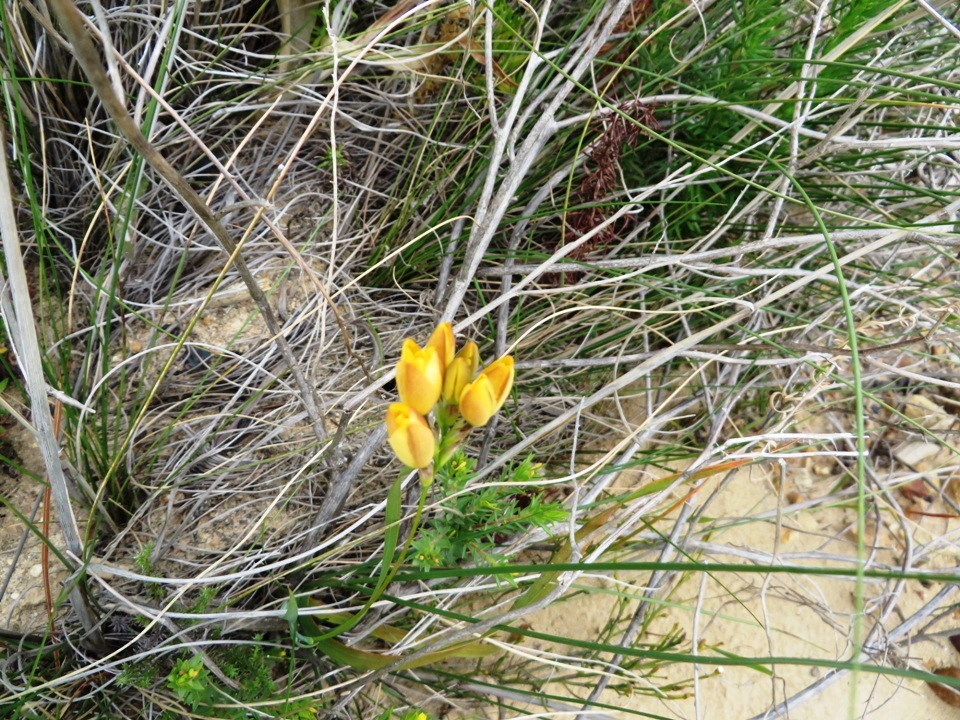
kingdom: Plantae
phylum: Tracheophyta
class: Liliopsida
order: Asparagales
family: Iridaceae
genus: Ixia
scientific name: Ixia dubia
